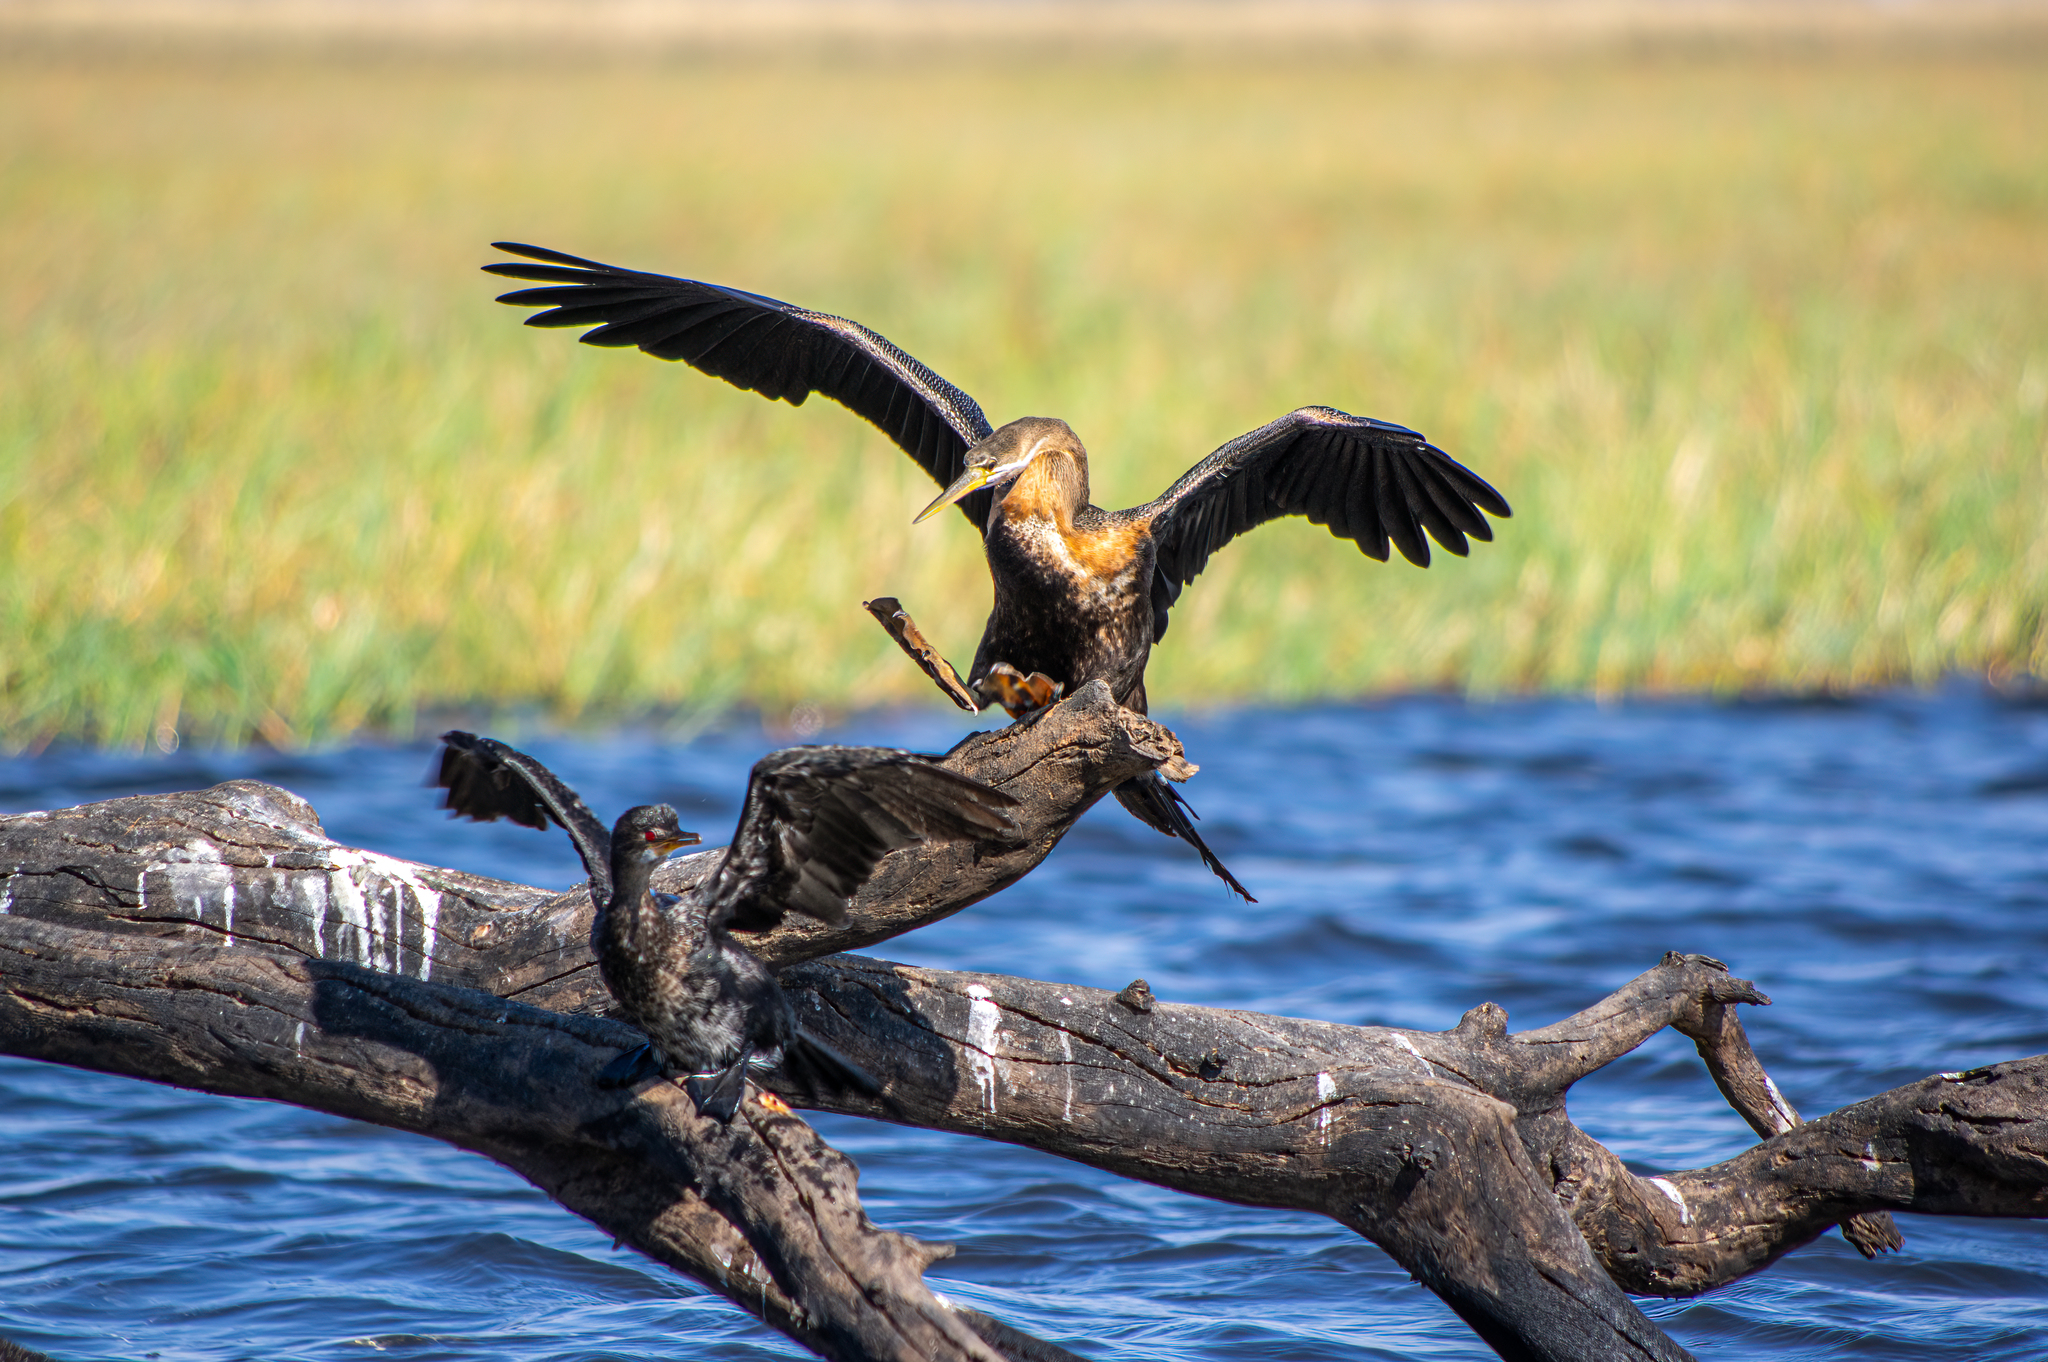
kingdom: Animalia
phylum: Chordata
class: Aves
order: Suliformes
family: Anhingidae
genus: Anhinga
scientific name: Anhinga rufa
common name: African darter
